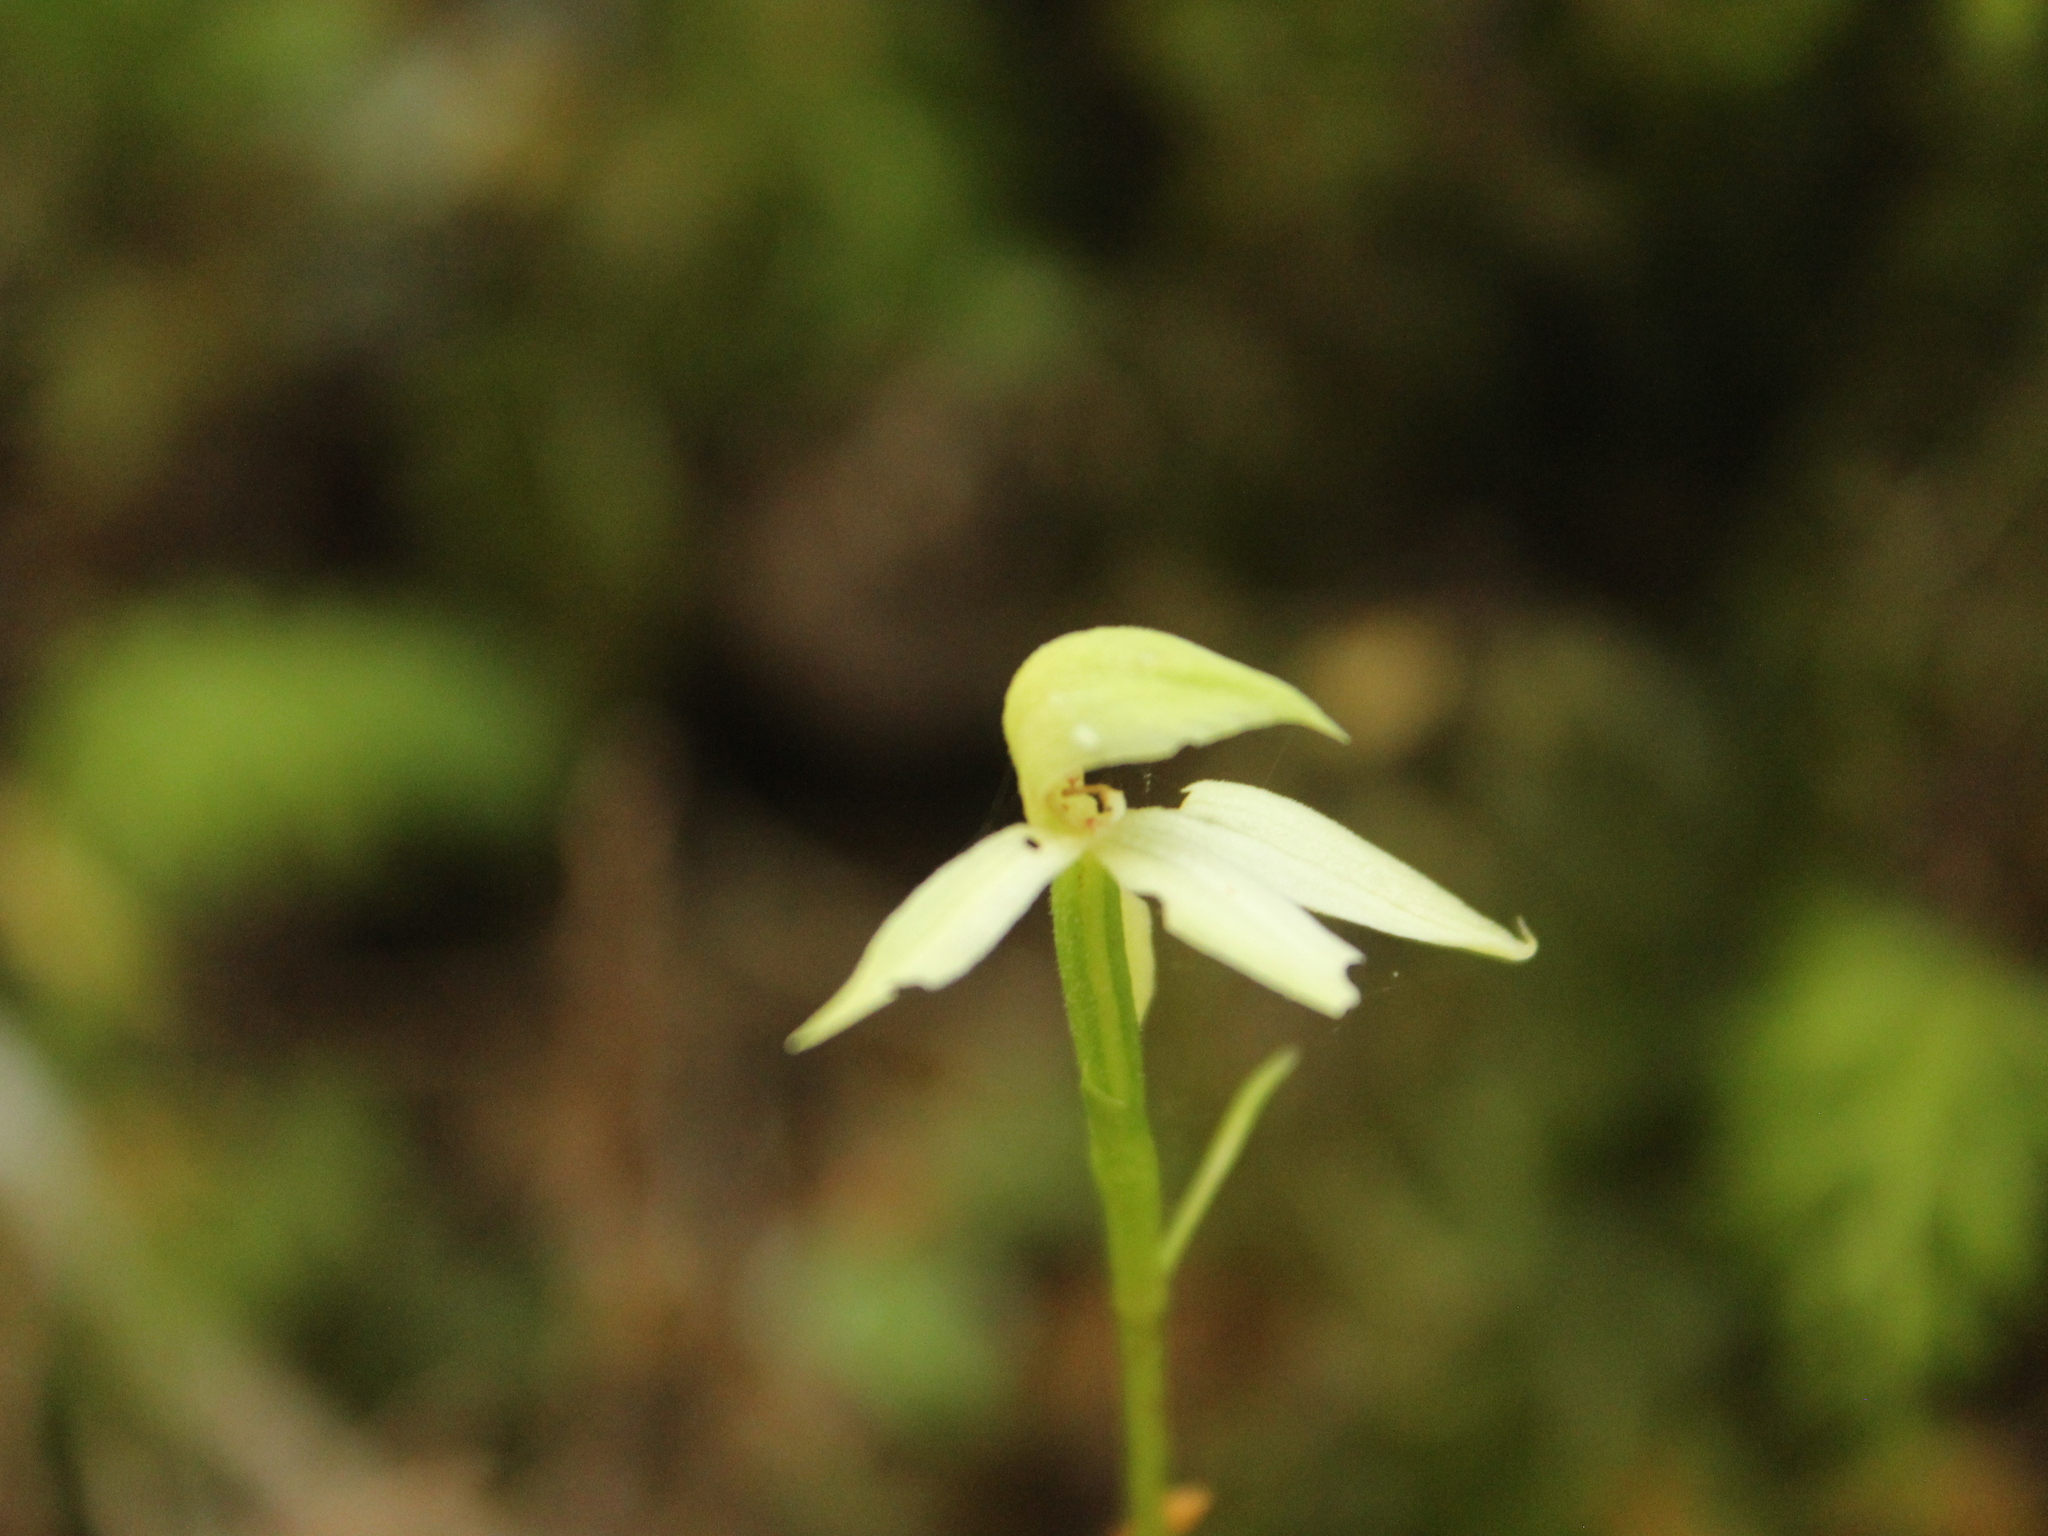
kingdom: Plantae
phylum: Tracheophyta
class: Liliopsida
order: Asparagales
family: Orchidaceae
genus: Adenochilus
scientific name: Adenochilus gracilis
